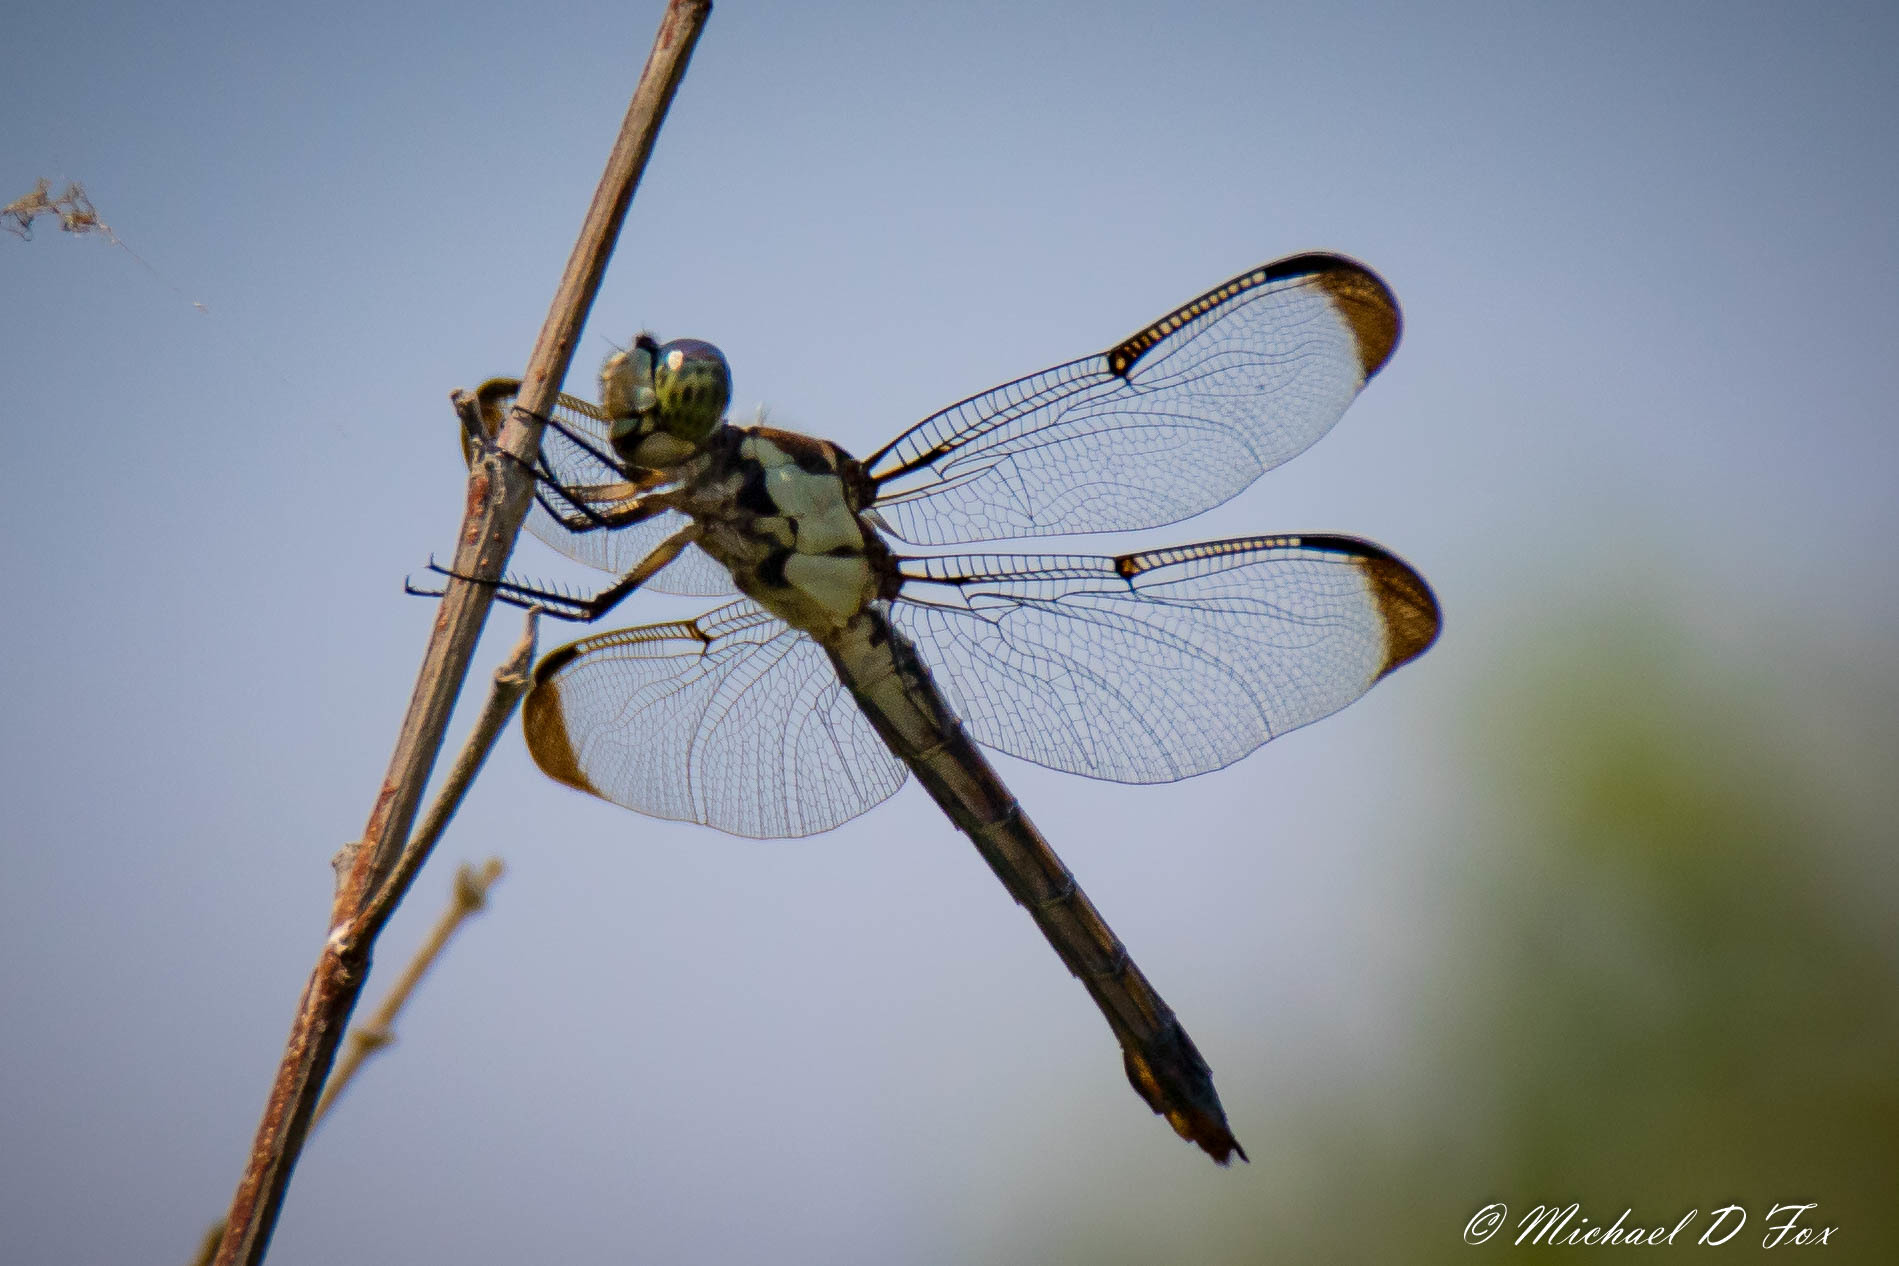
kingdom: Animalia
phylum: Arthropoda
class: Insecta
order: Odonata
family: Libellulidae
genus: Libellula
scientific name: Libellula vibrans
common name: Great blue skimmer
